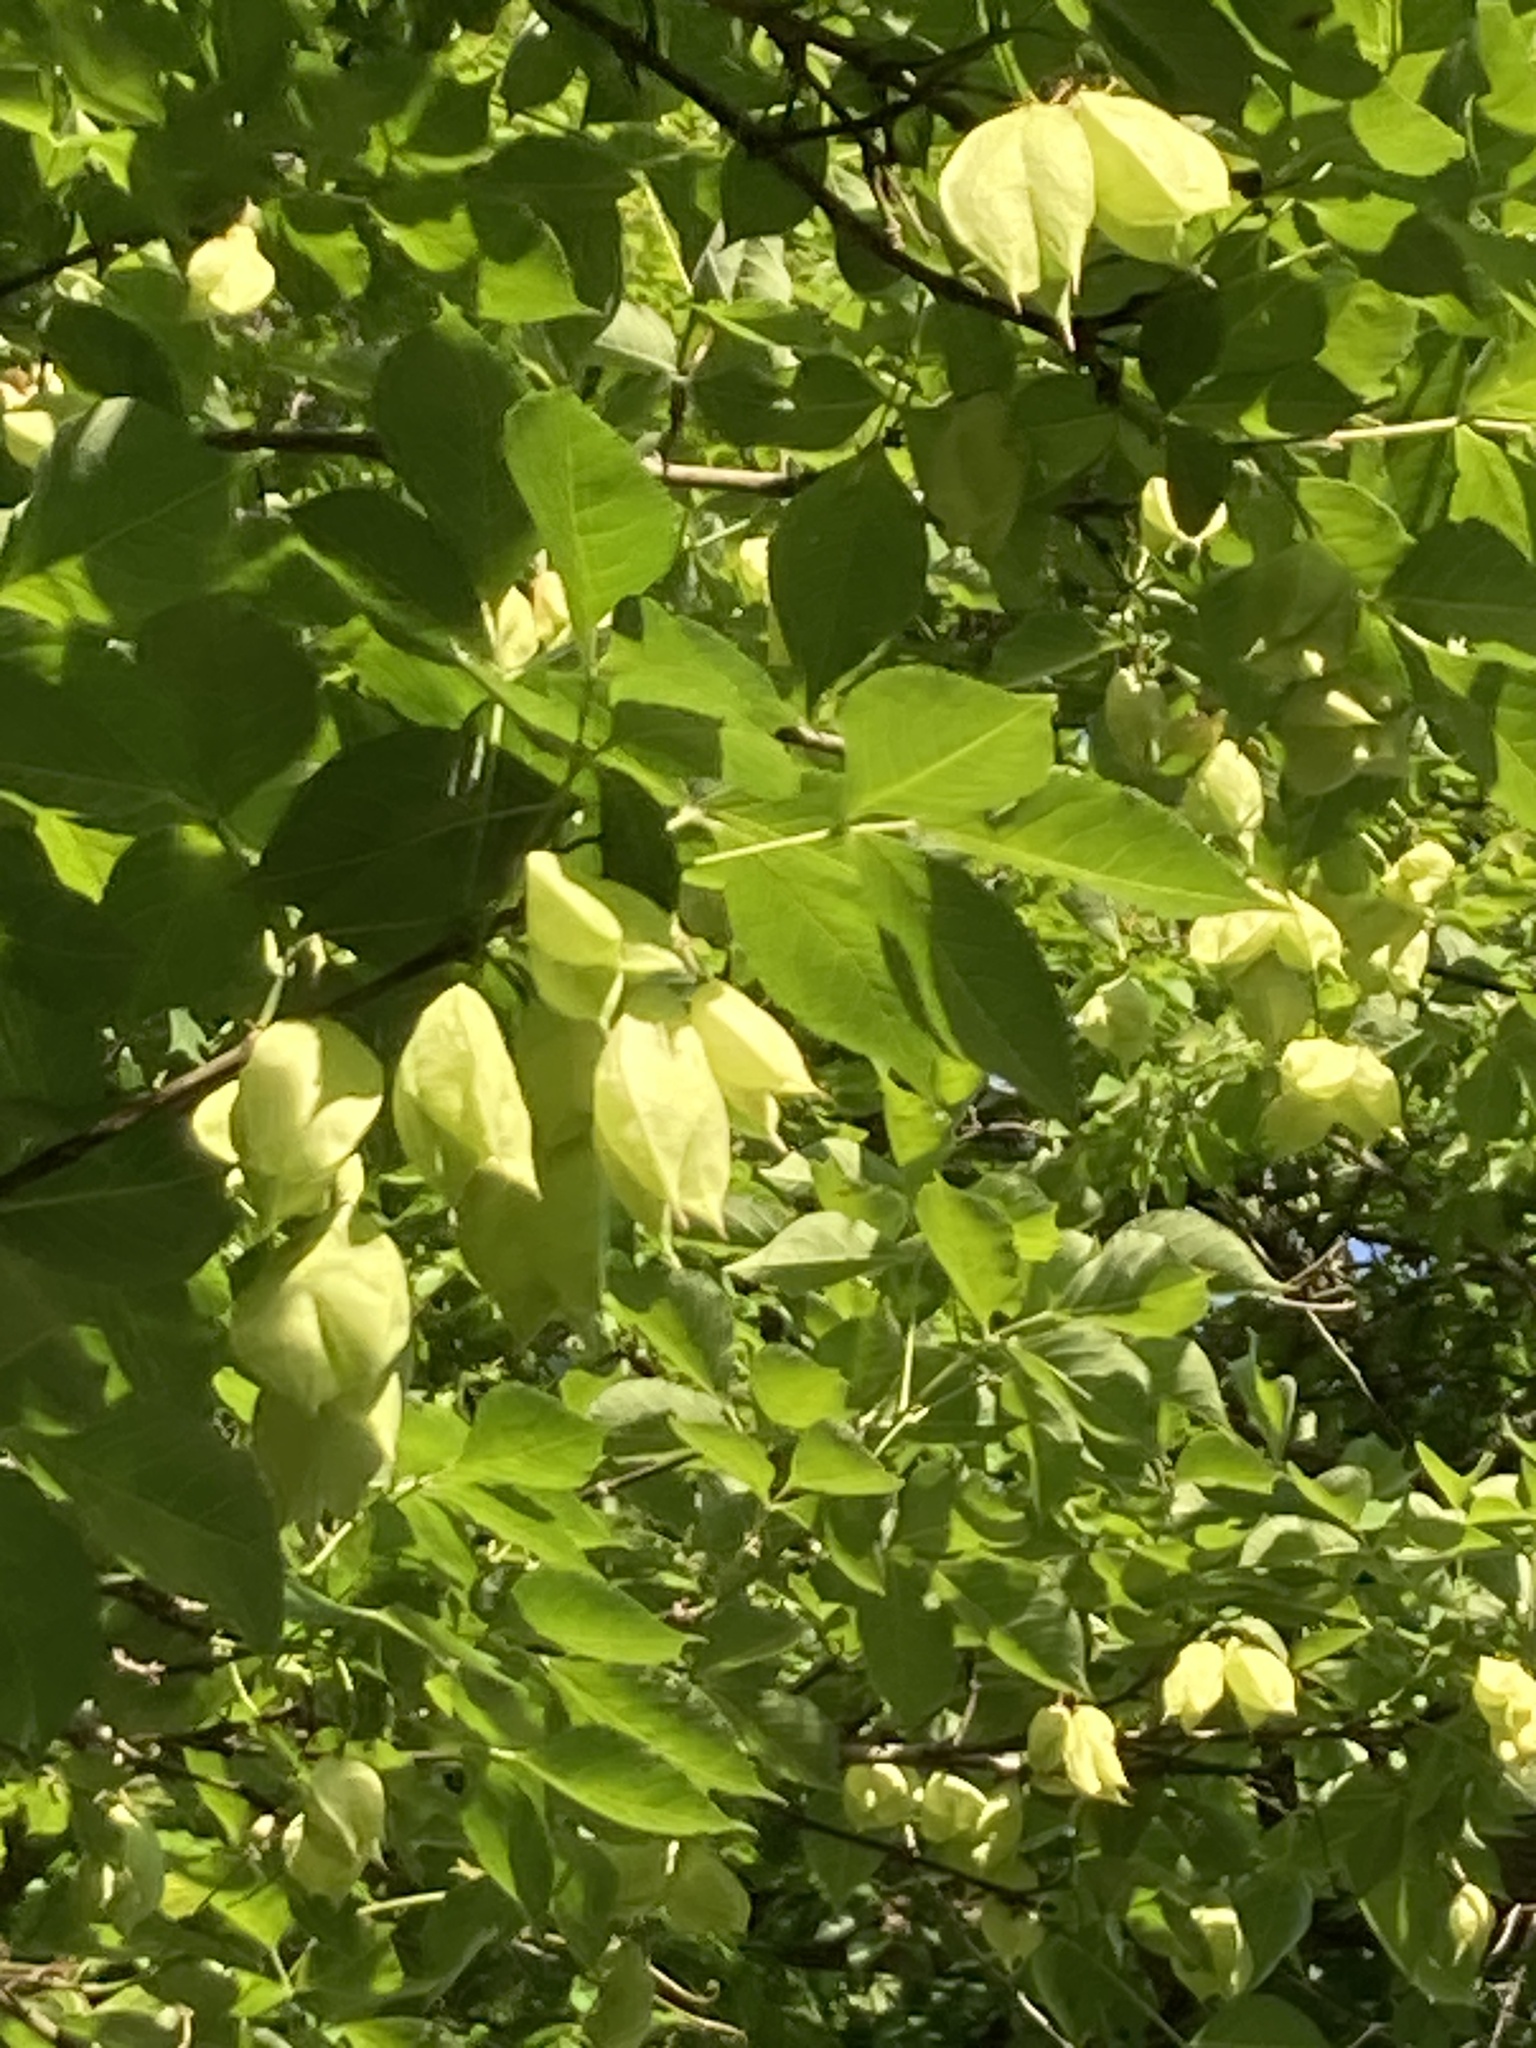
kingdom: Plantae
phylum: Tracheophyta
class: Magnoliopsida
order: Crossosomatales
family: Staphyleaceae
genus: Staphylea
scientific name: Staphylea trifolia
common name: American bladdernut
